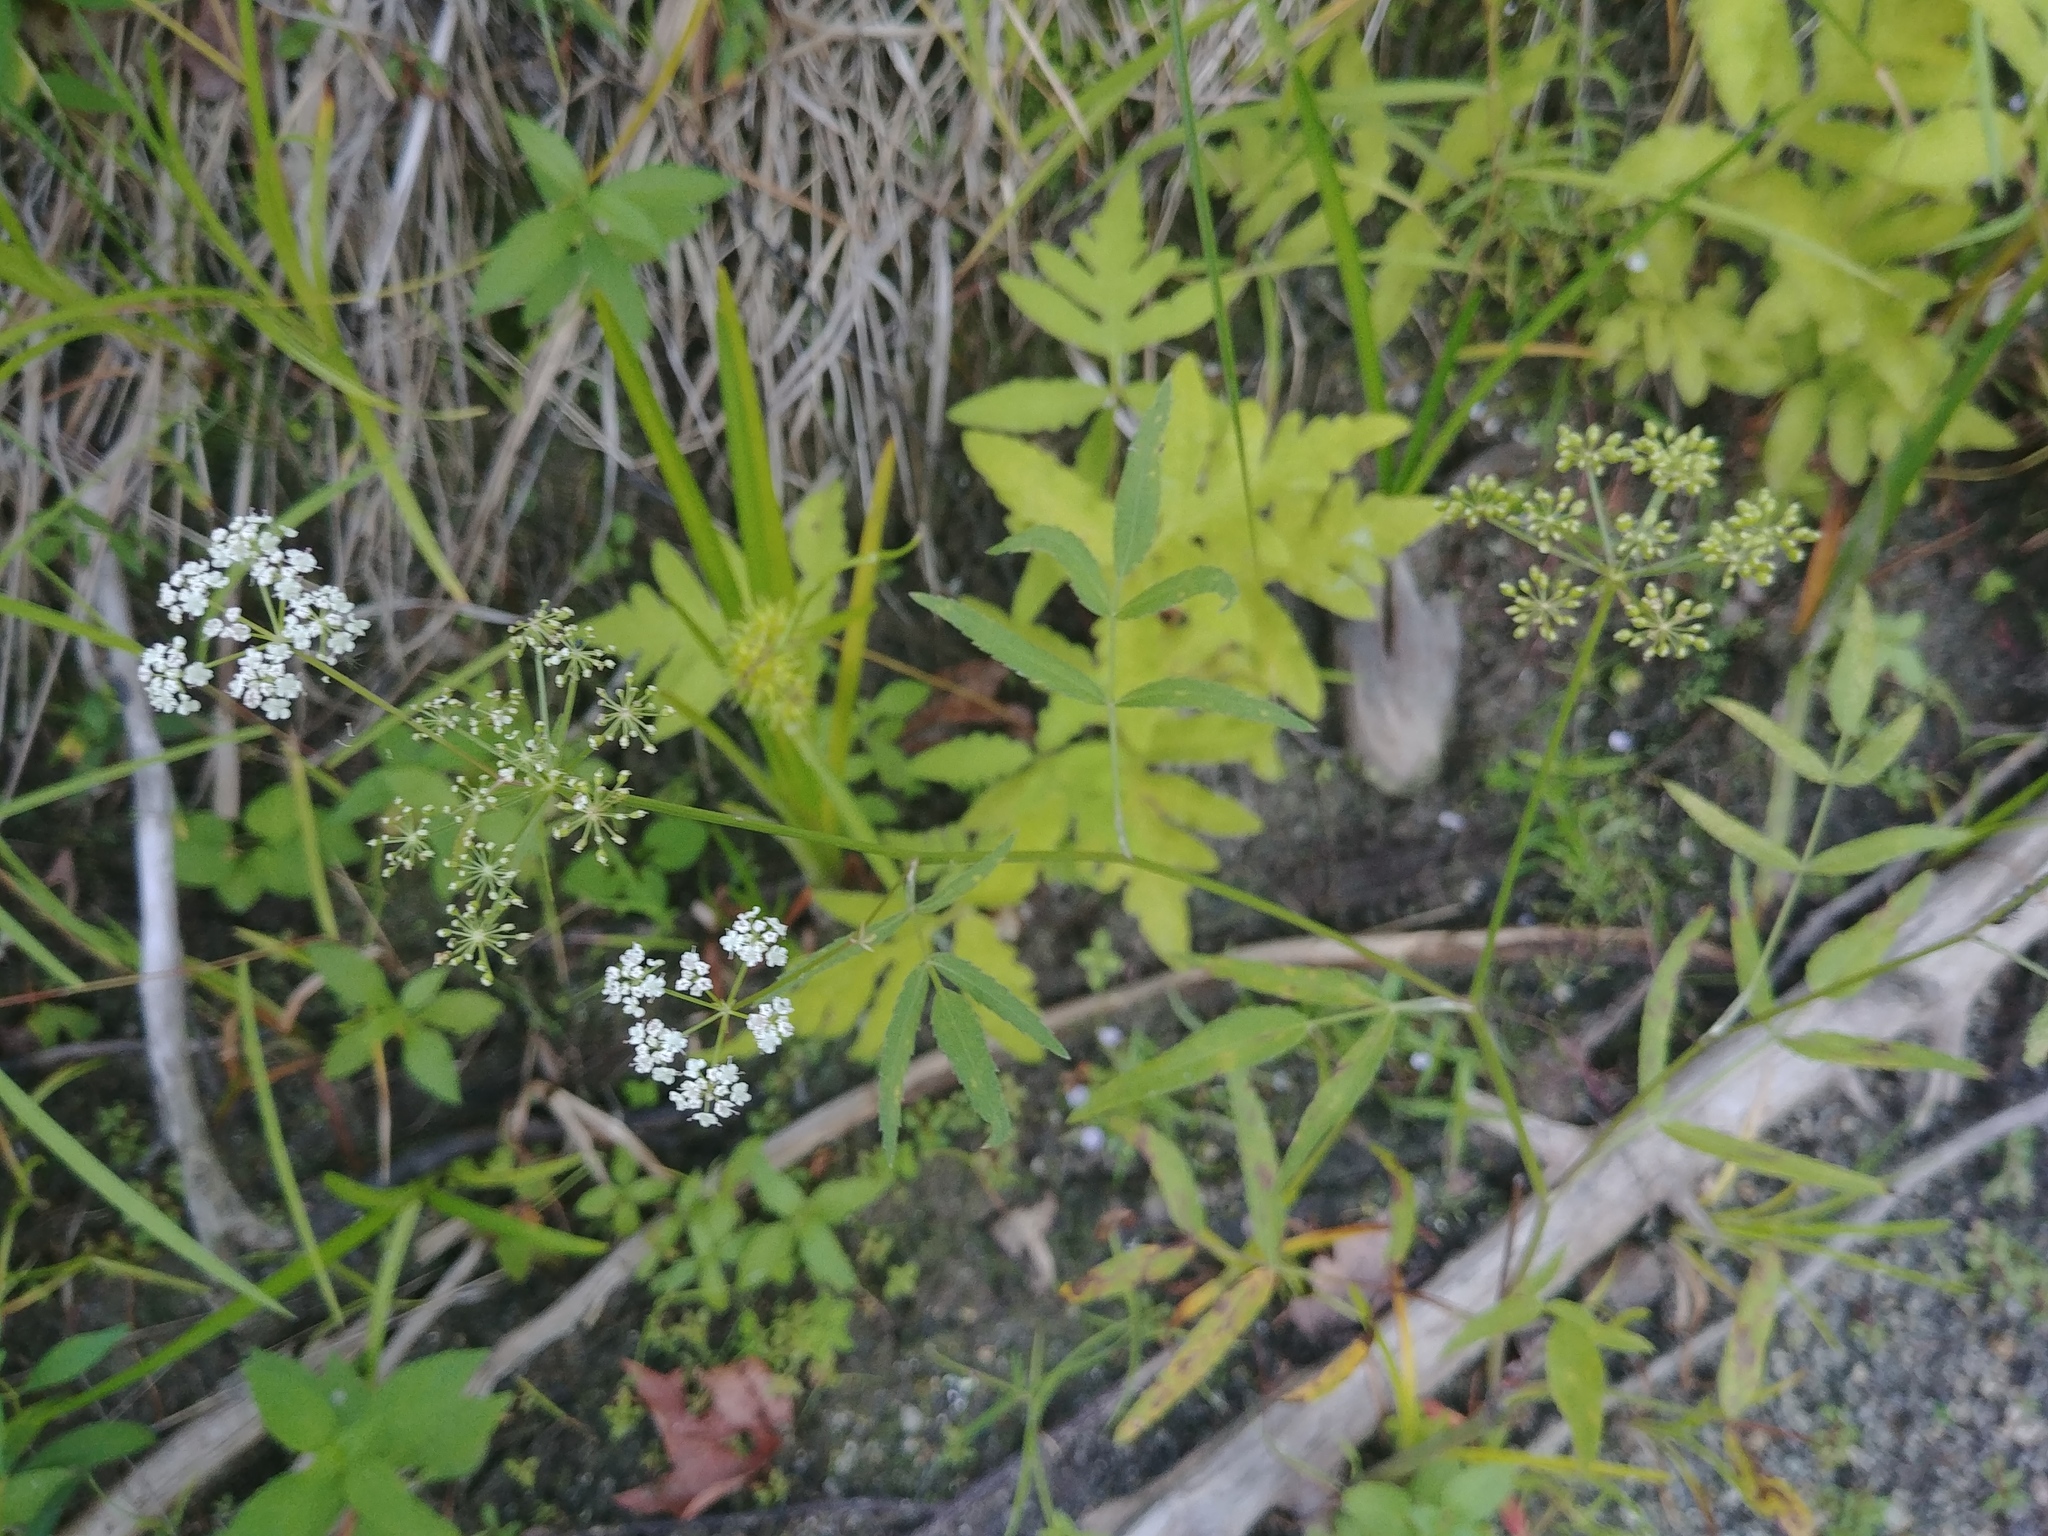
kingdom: Plantae
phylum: Tracheophyta
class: Magnoliopsida
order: Apiales
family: Apiaceae
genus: Sium
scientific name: Sium suave
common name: Hemlock water-parsnip
